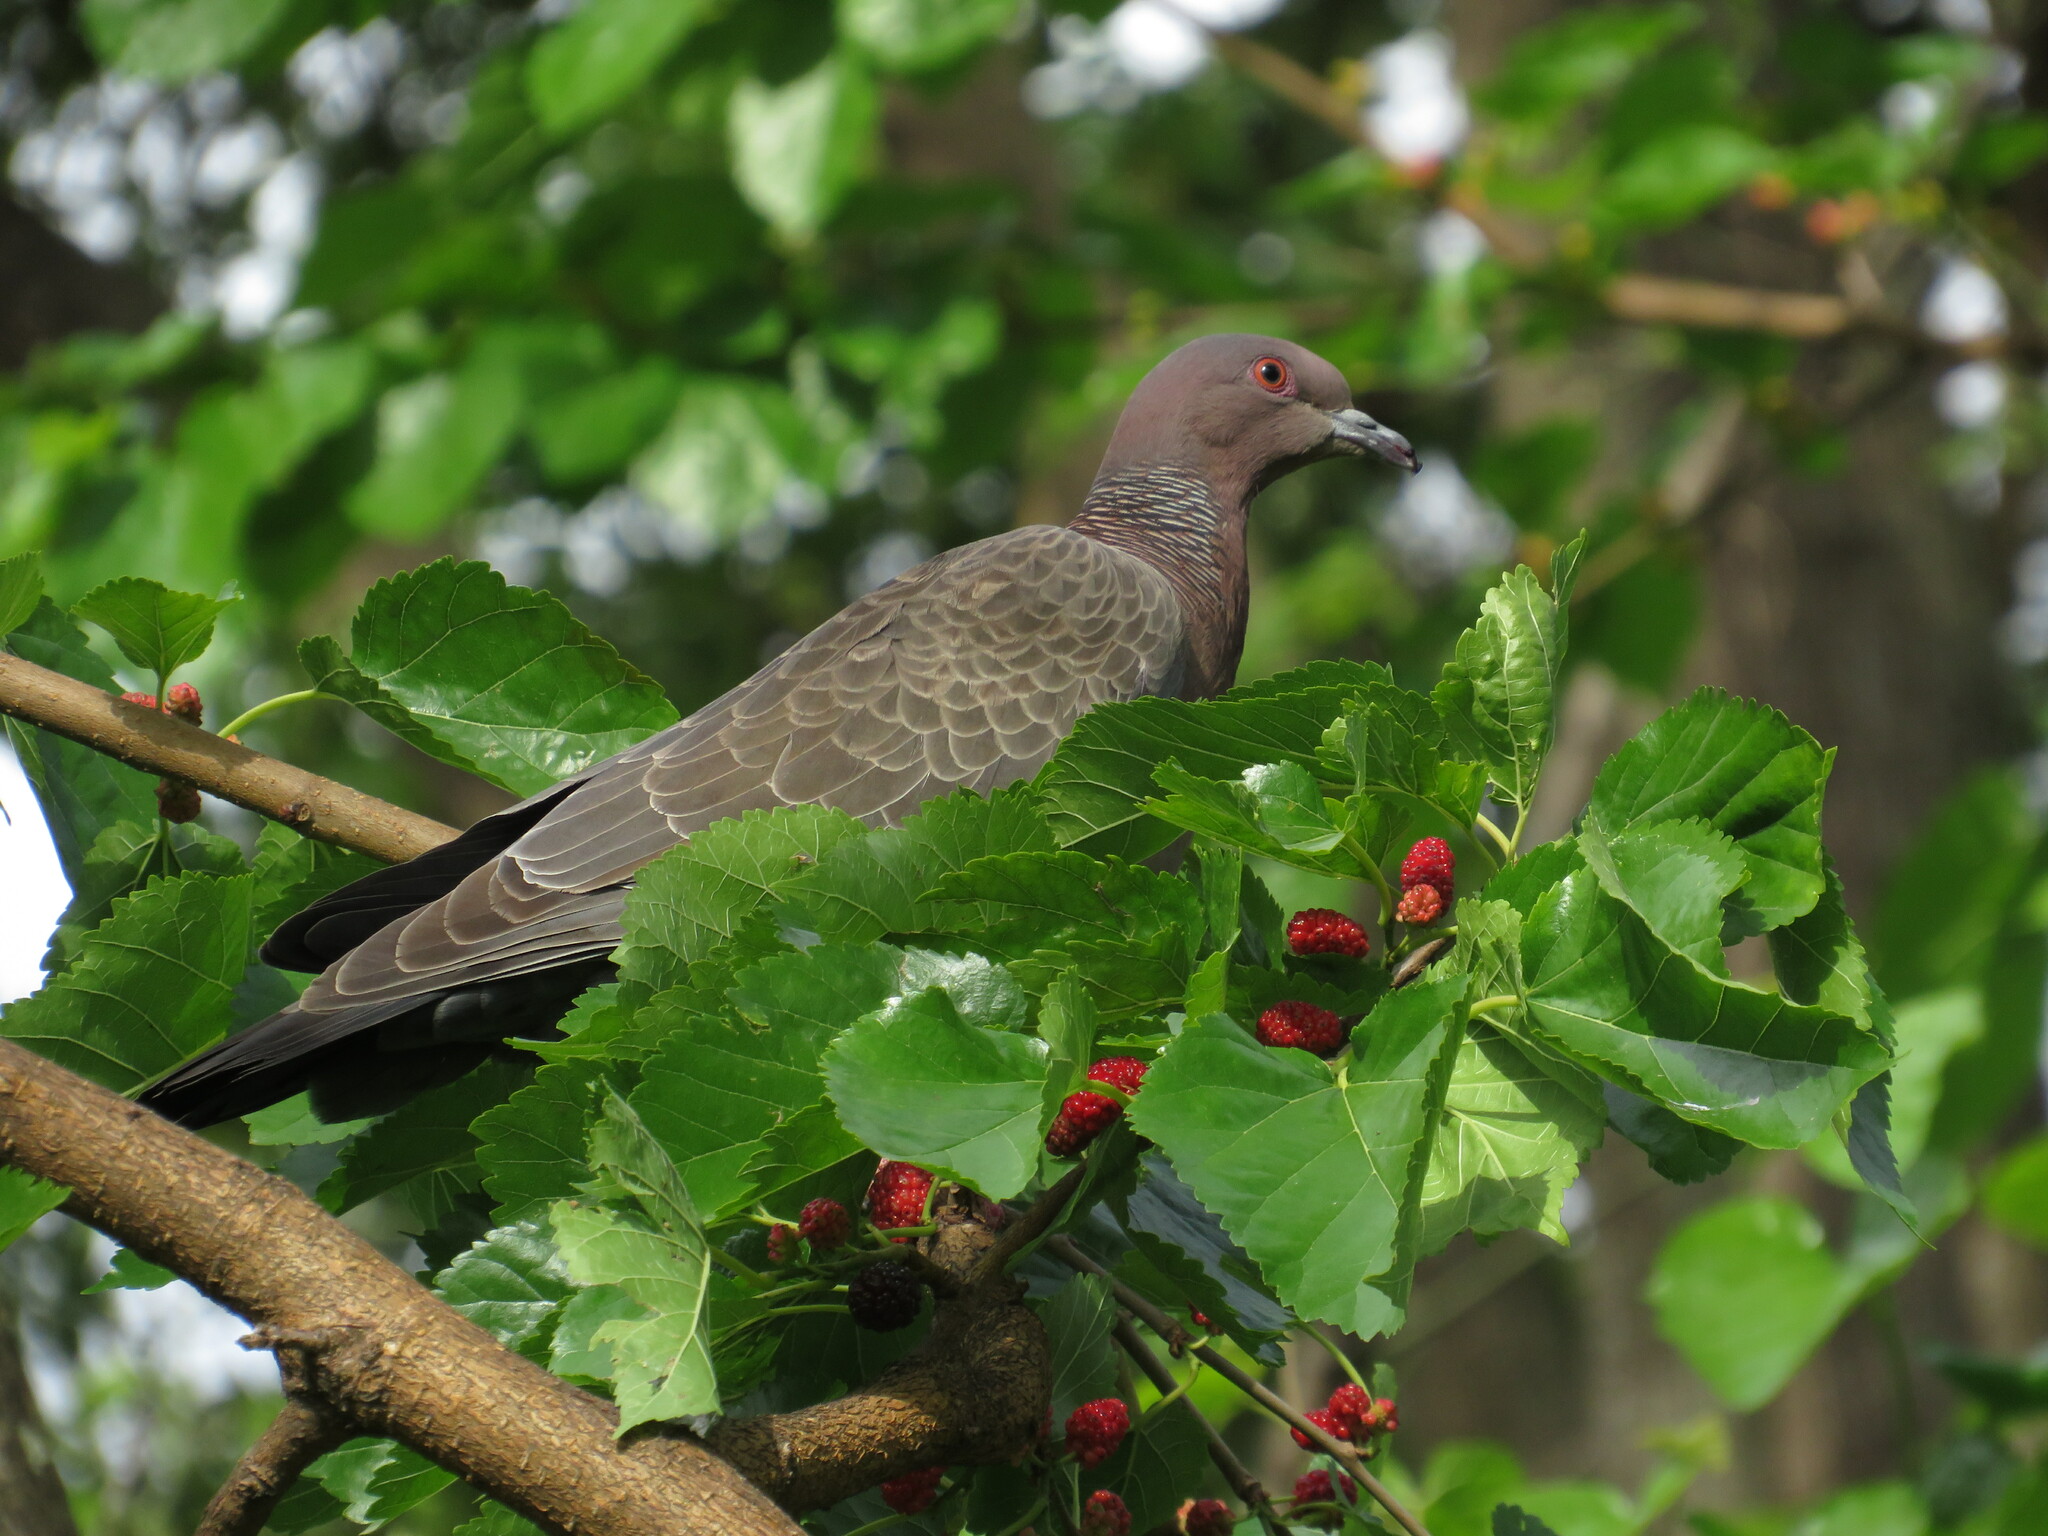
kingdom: Animalia
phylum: Chordata
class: Aves
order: Columbiformes
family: Columbidae
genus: Patagioenas
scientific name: Patagioenas picazuro
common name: Picazuro pigeon
